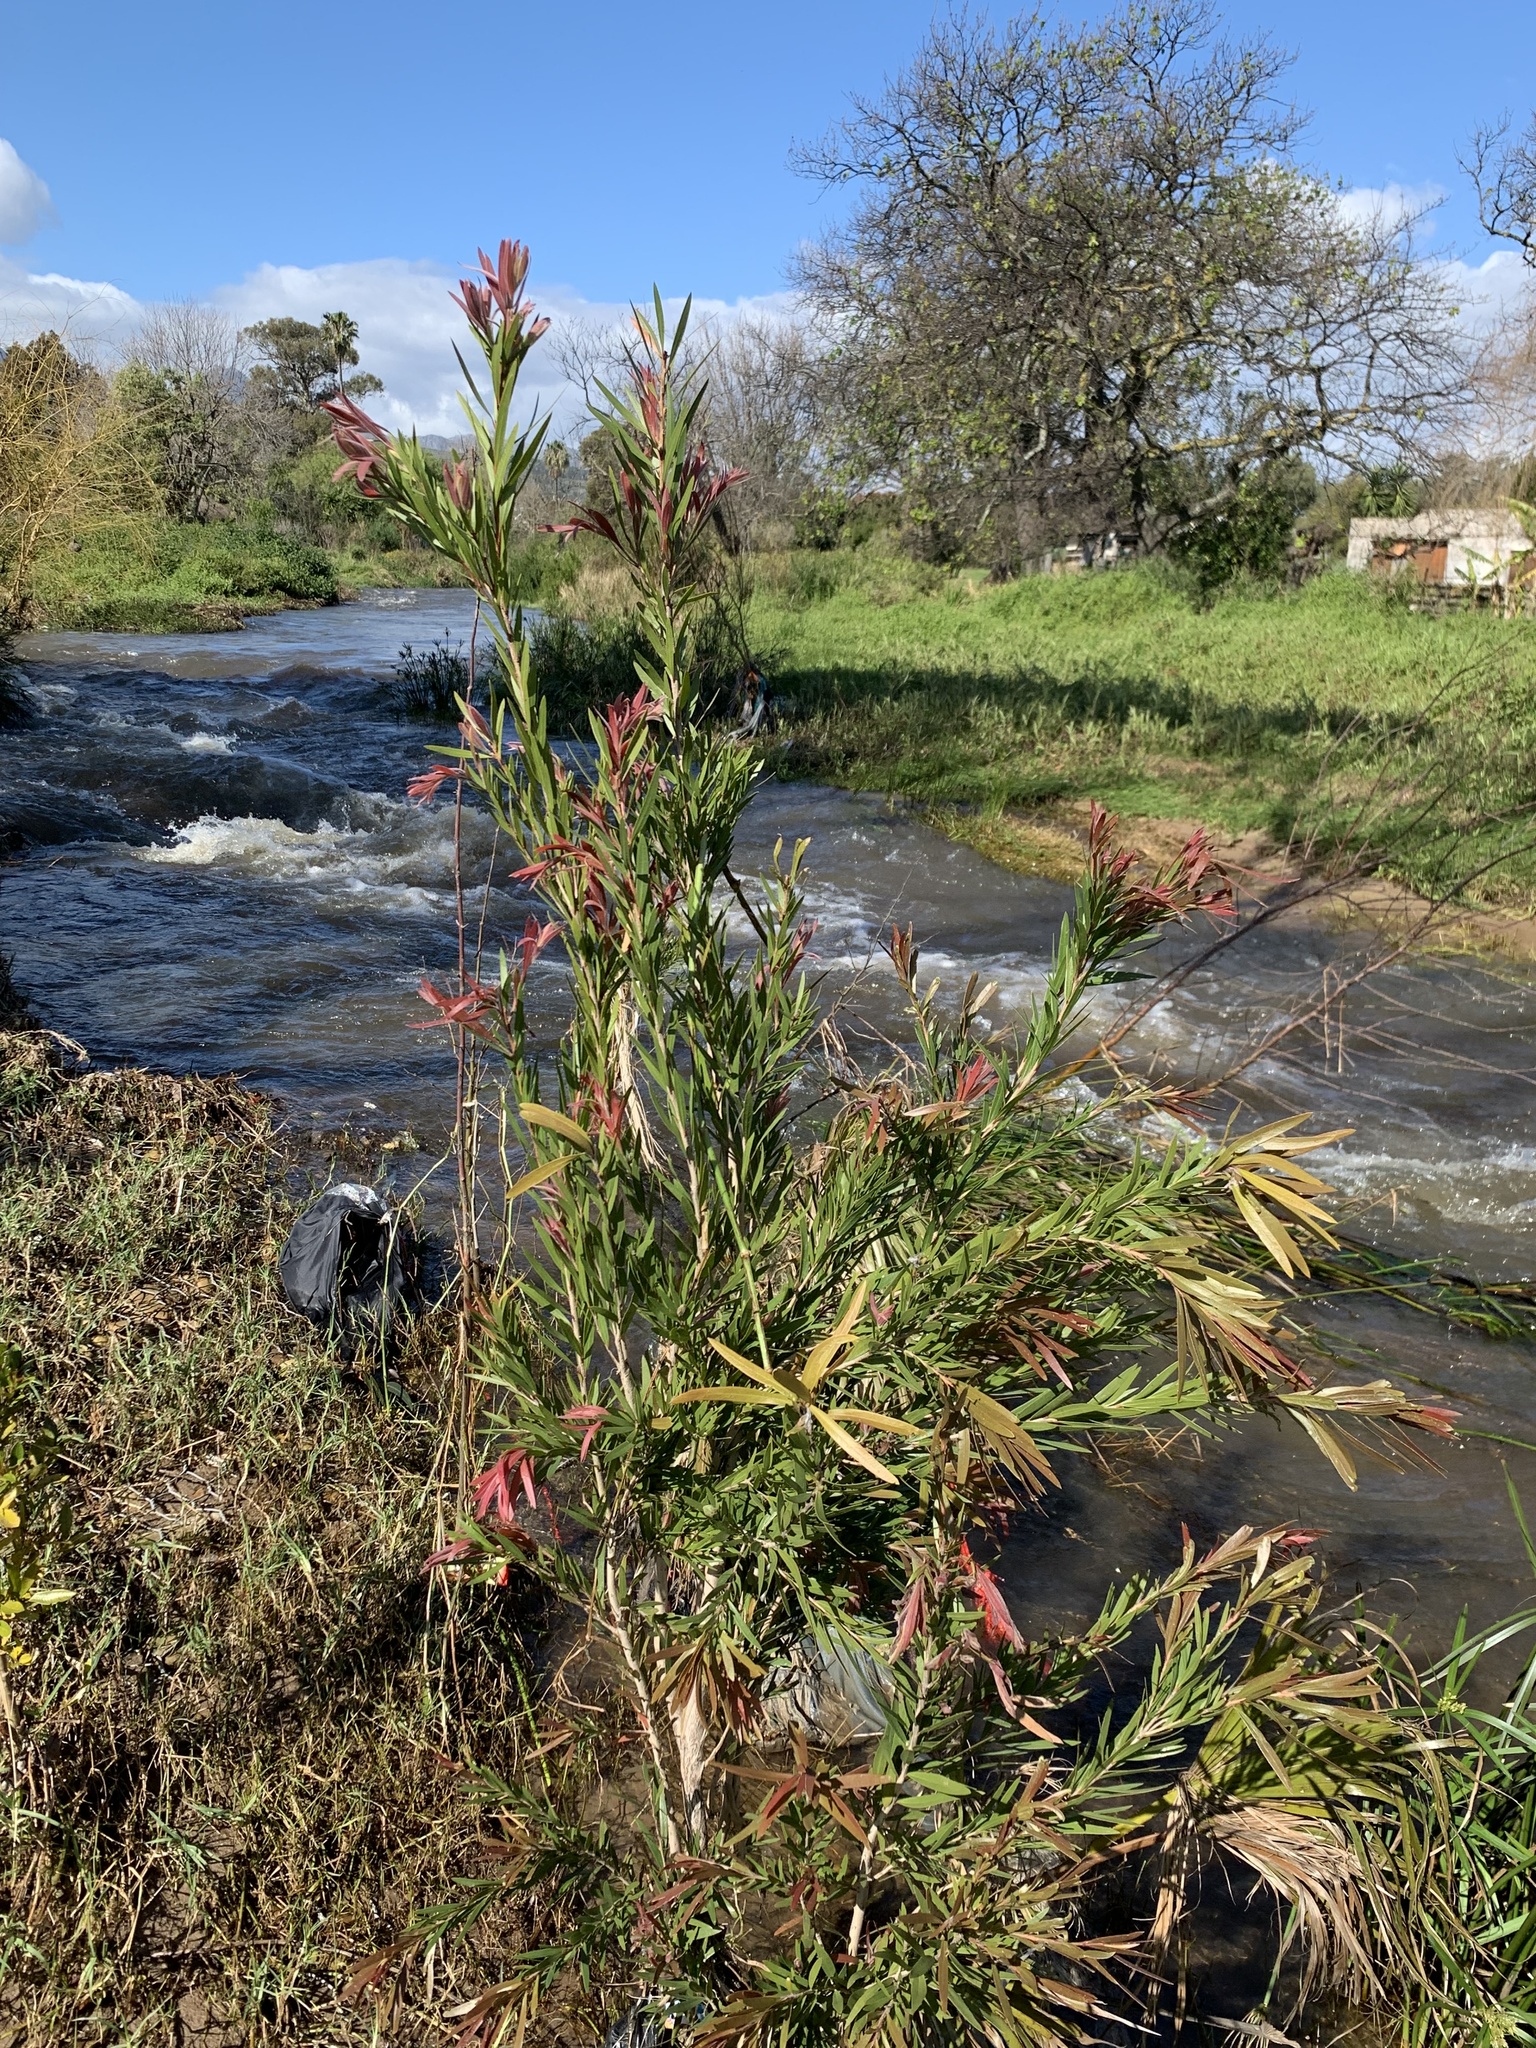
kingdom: Plantae
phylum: Tracheophyta
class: Magnoliopsida
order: Myrtales
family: Myrtaceae
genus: Callistemon
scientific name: Callistemon viminalis
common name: Drooping bottlebrush
